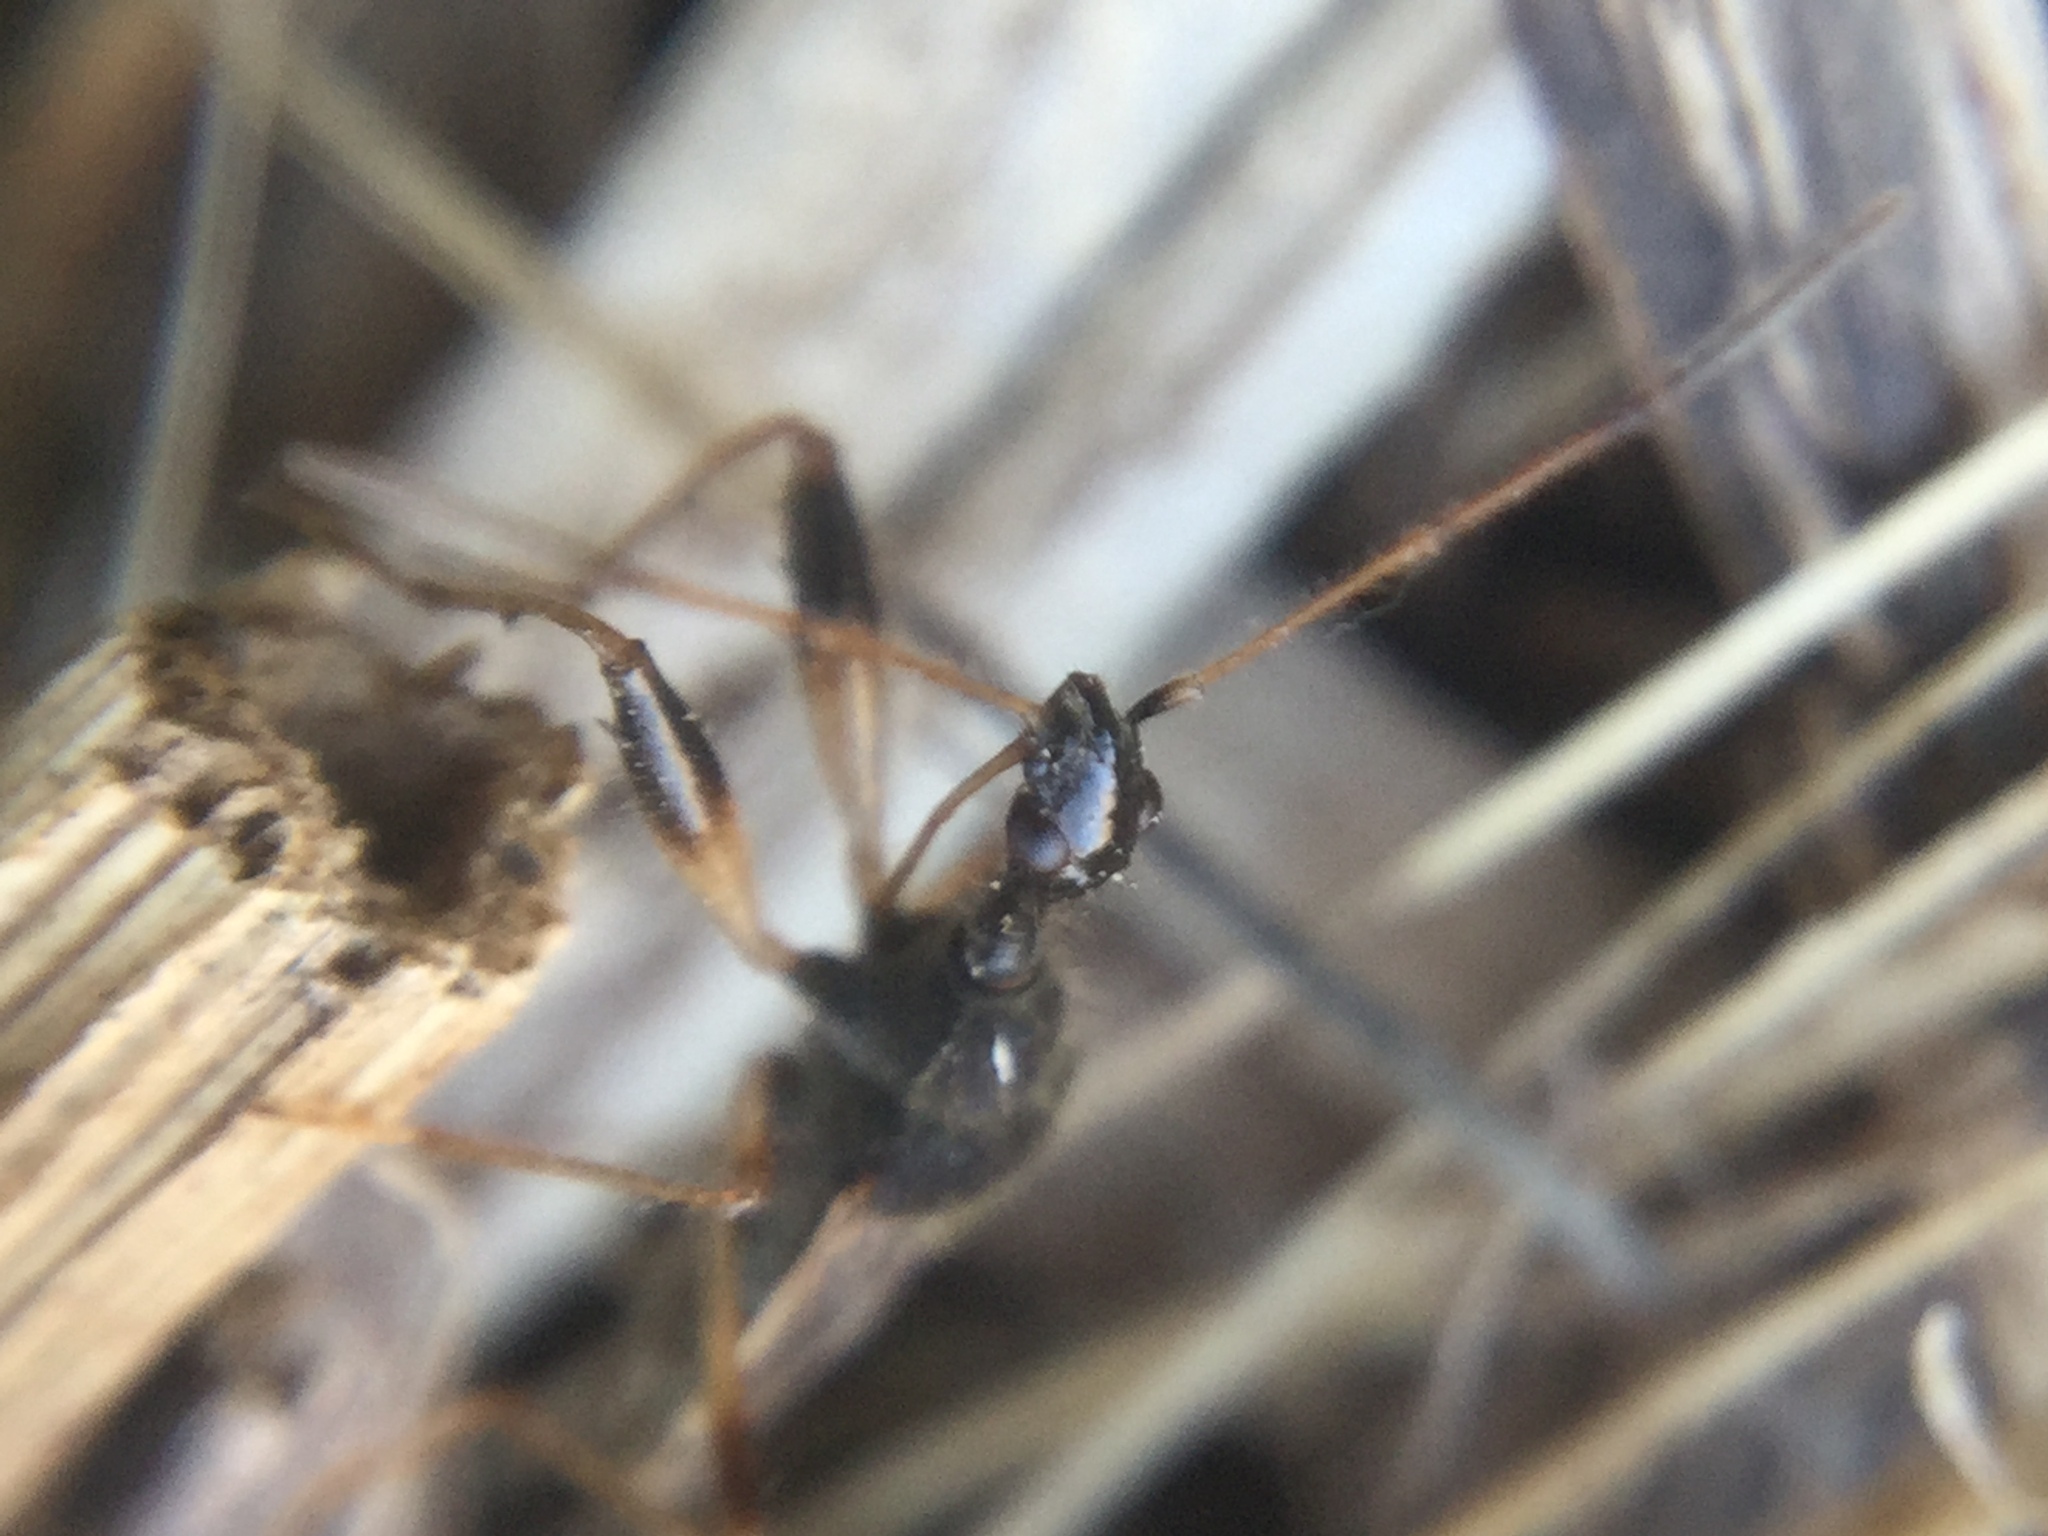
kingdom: Animalia
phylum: Arthropoda
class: Insecta
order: Hemiptera
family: Rhyparochromidae
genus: Myodocha
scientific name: Myodocha serripes
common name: Long-necked seed bug
